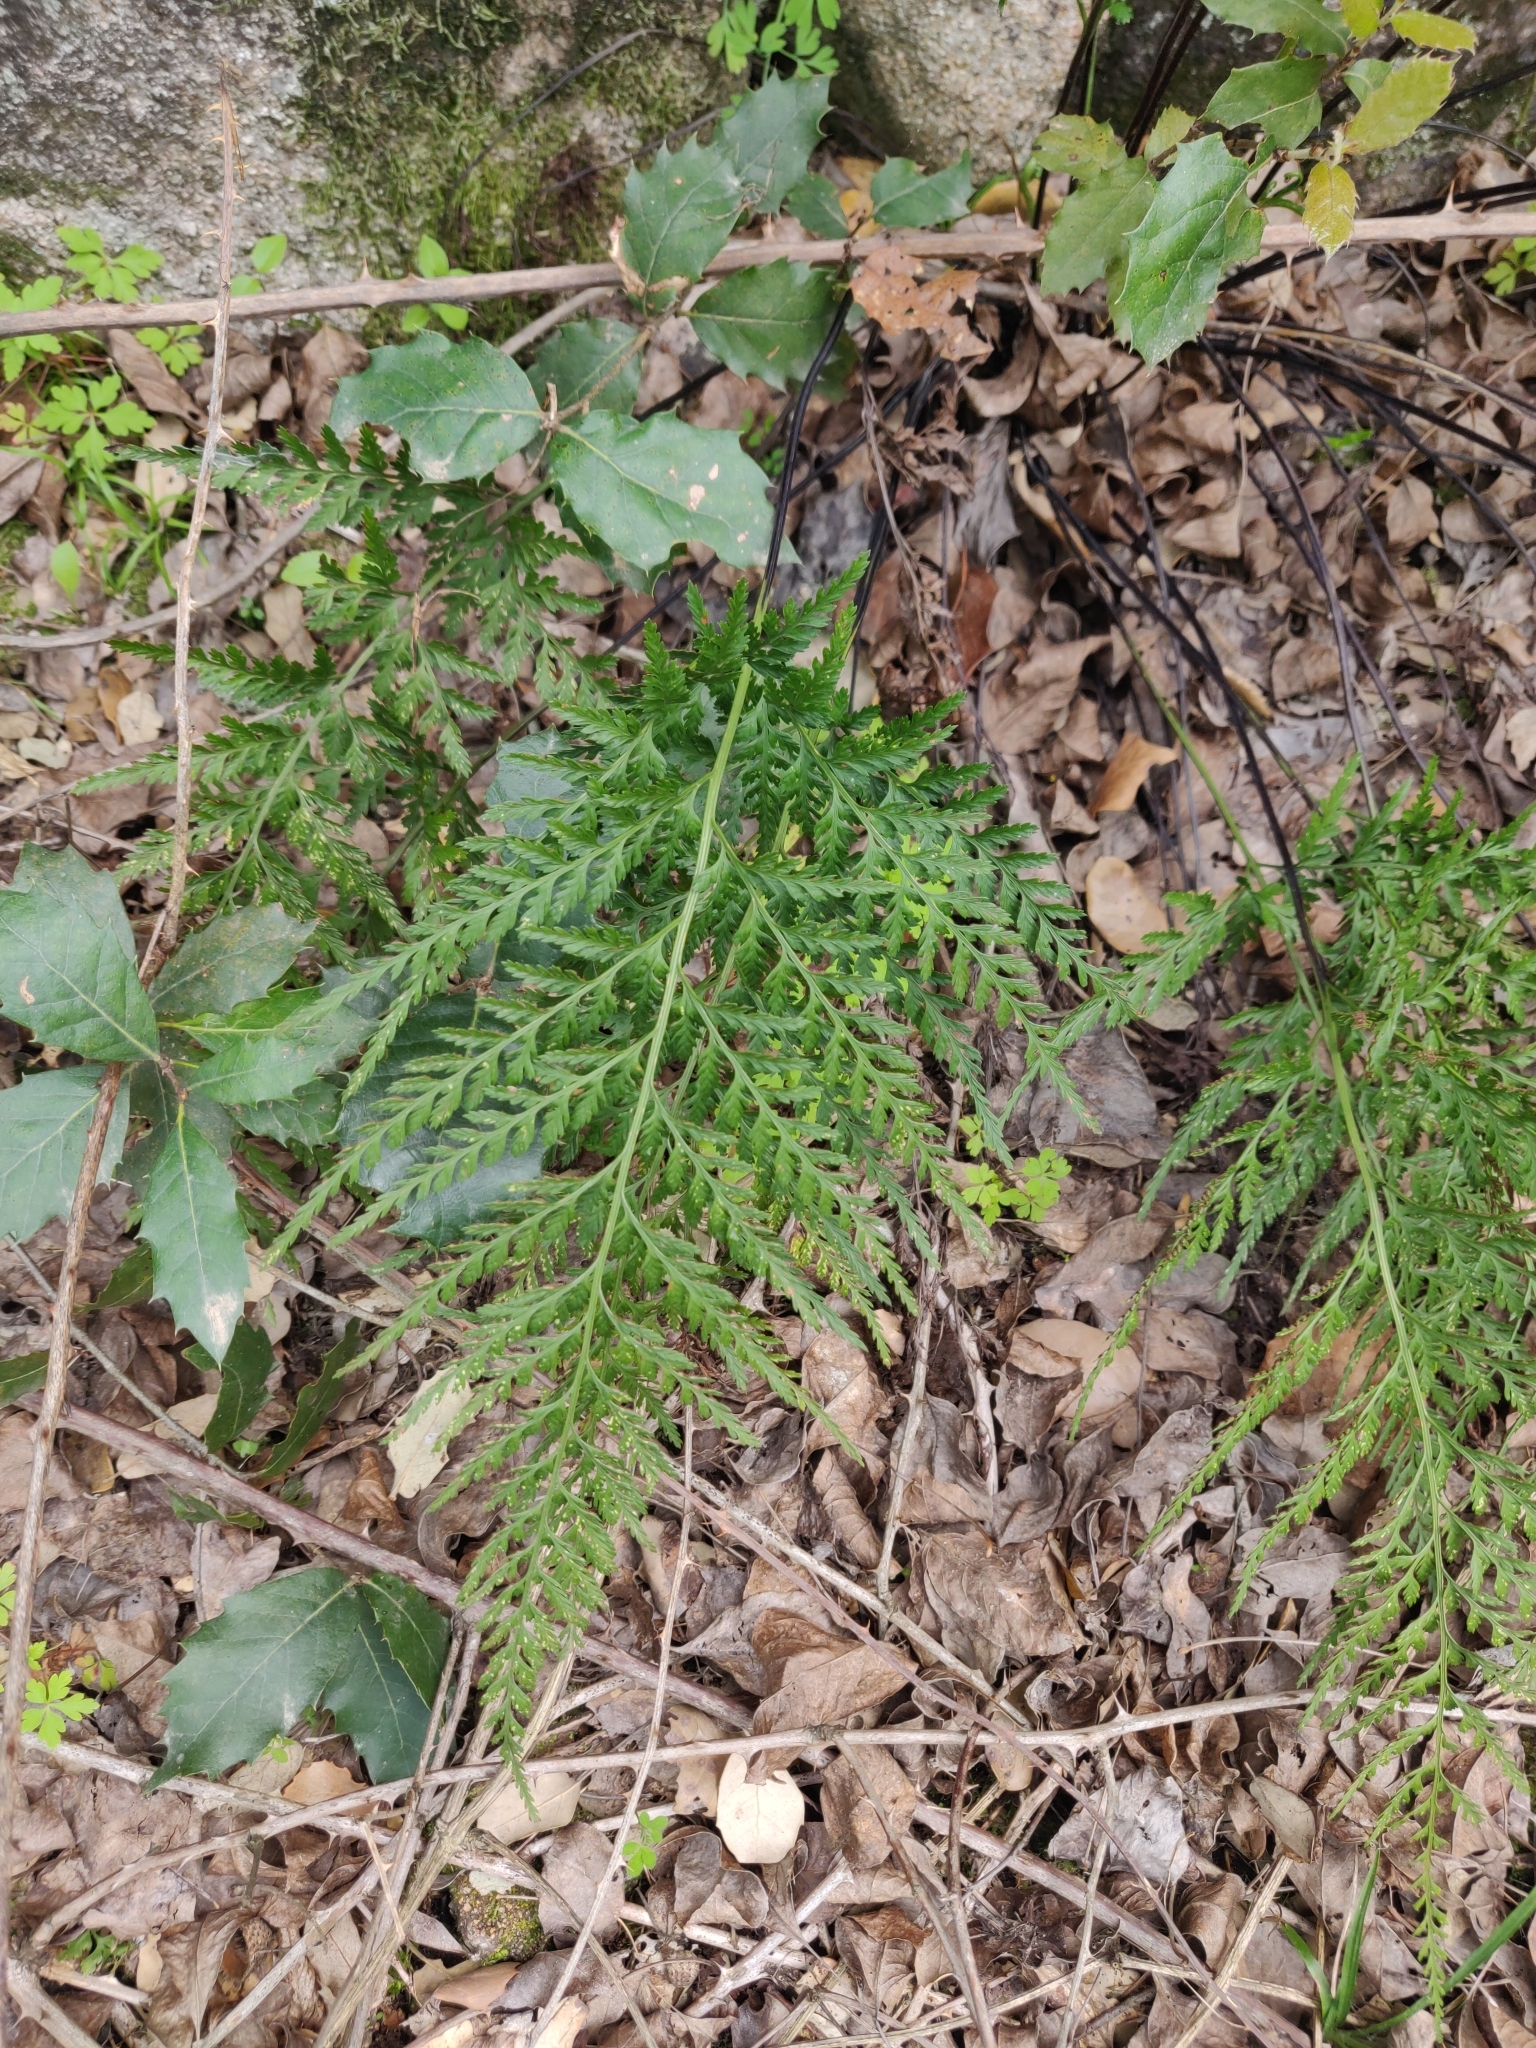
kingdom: Plantae
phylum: Tracheophyta
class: Polypodiopsida
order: Polypodiales
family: Aspleniaceae
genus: Asplenium
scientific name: Asplenium onopteris
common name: Irish spleenwort
